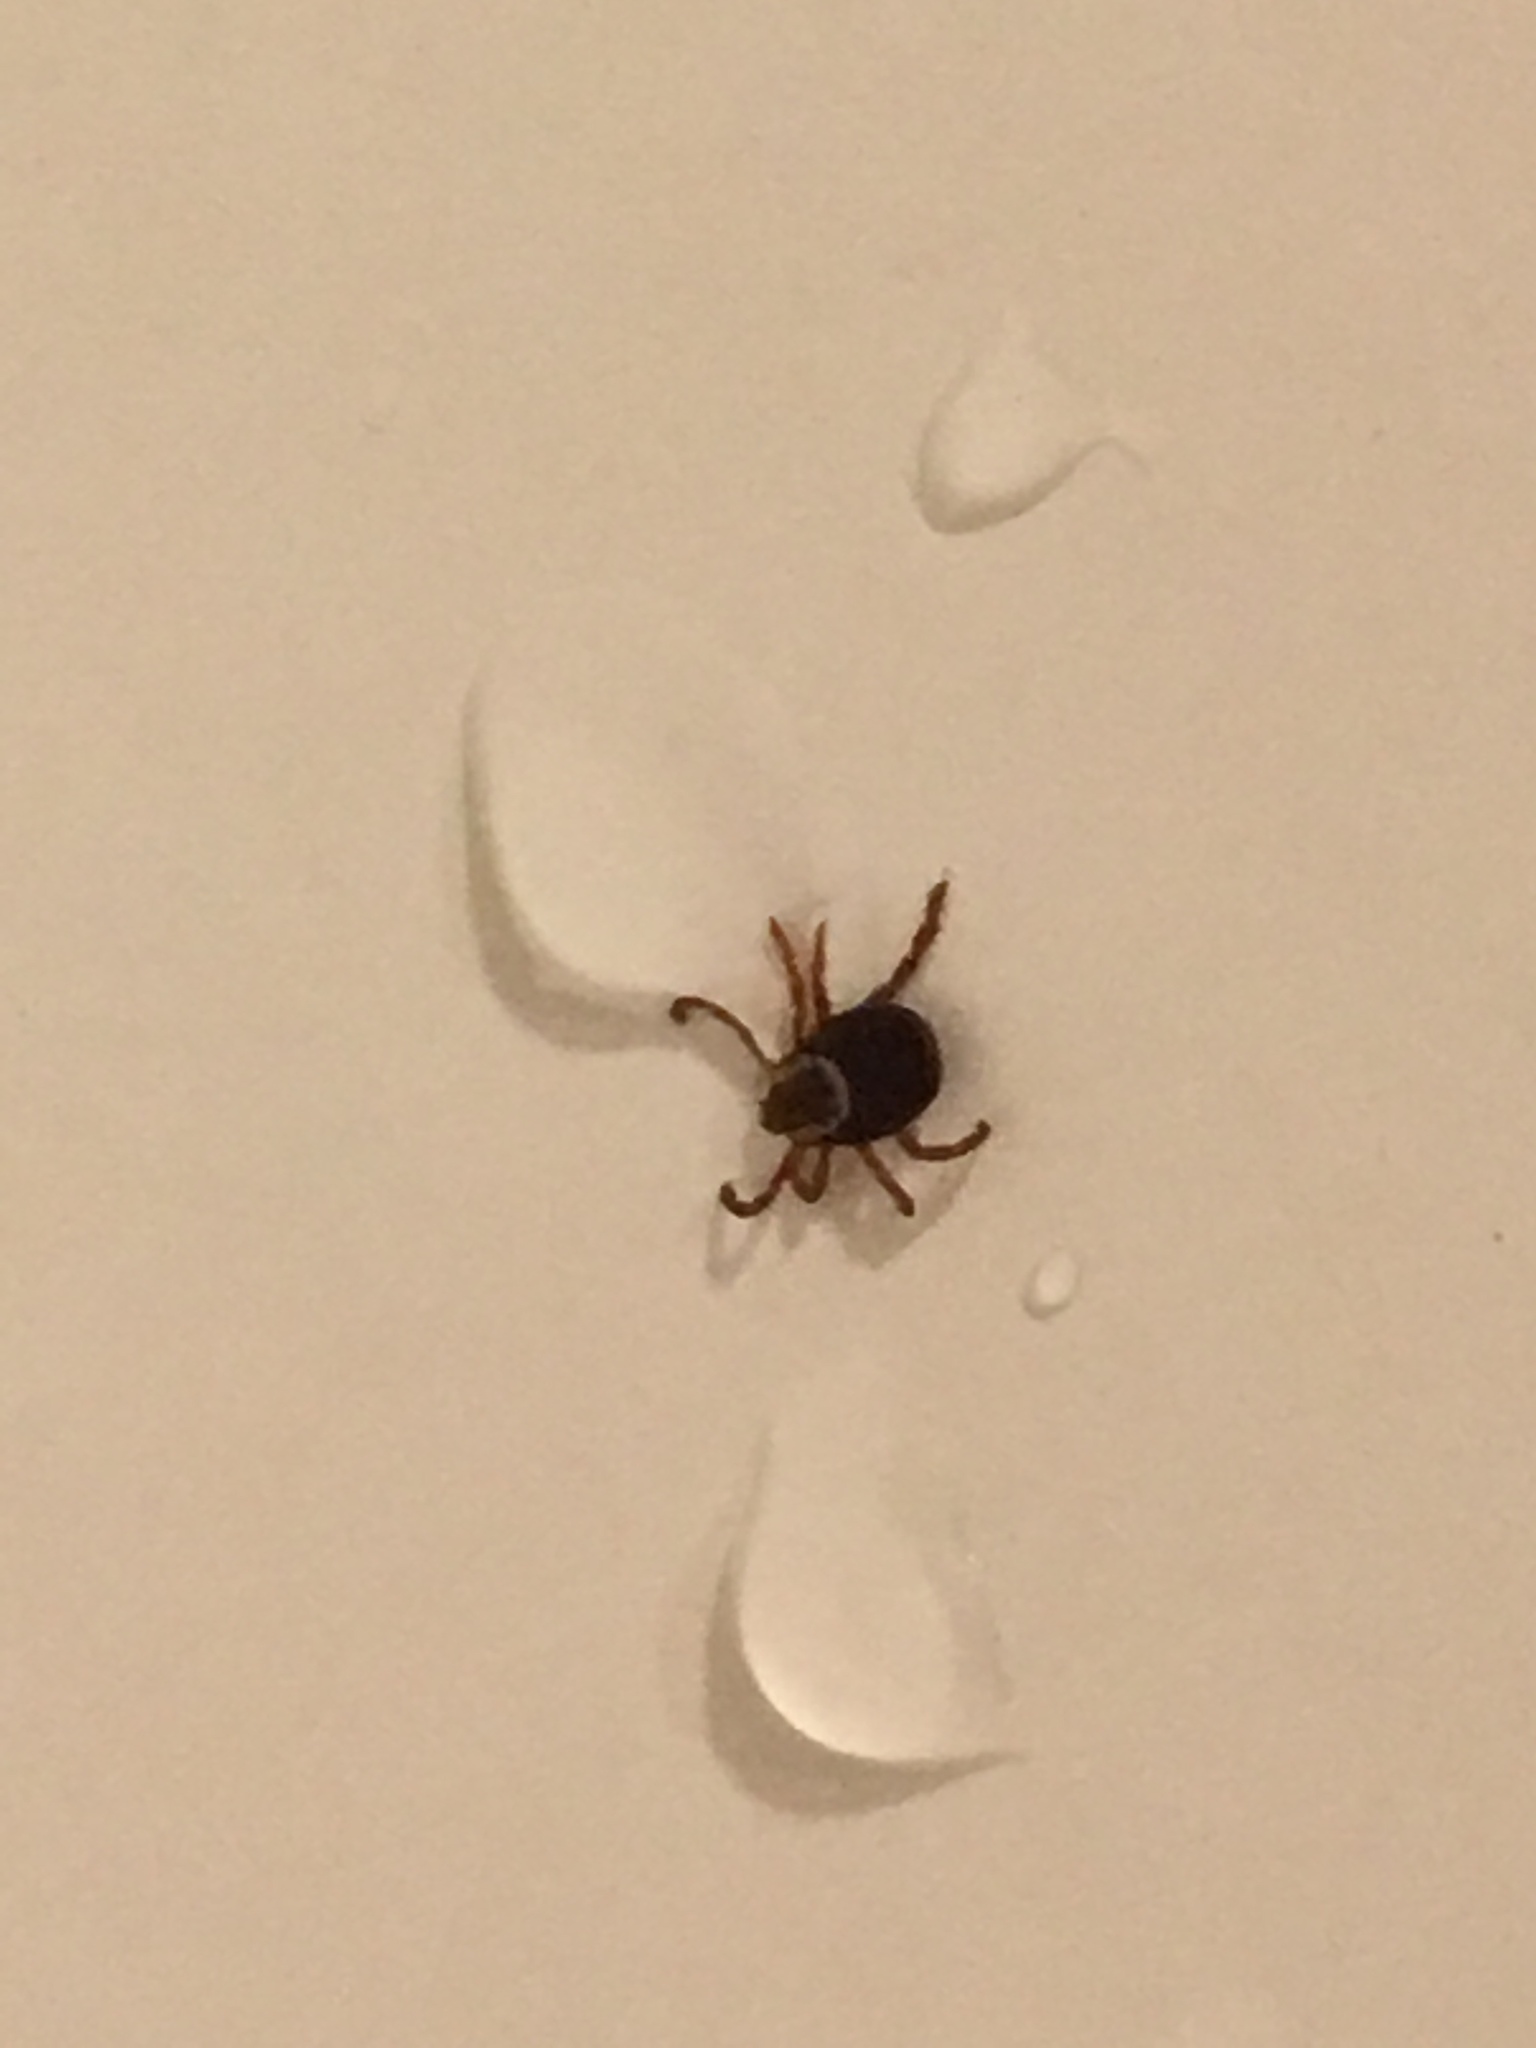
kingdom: Animalia
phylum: Arthropoda
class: Arachnida
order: Ixodida
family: Ixodidae
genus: Dermacentor
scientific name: Dermacentor variabilis
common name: American dog tick
